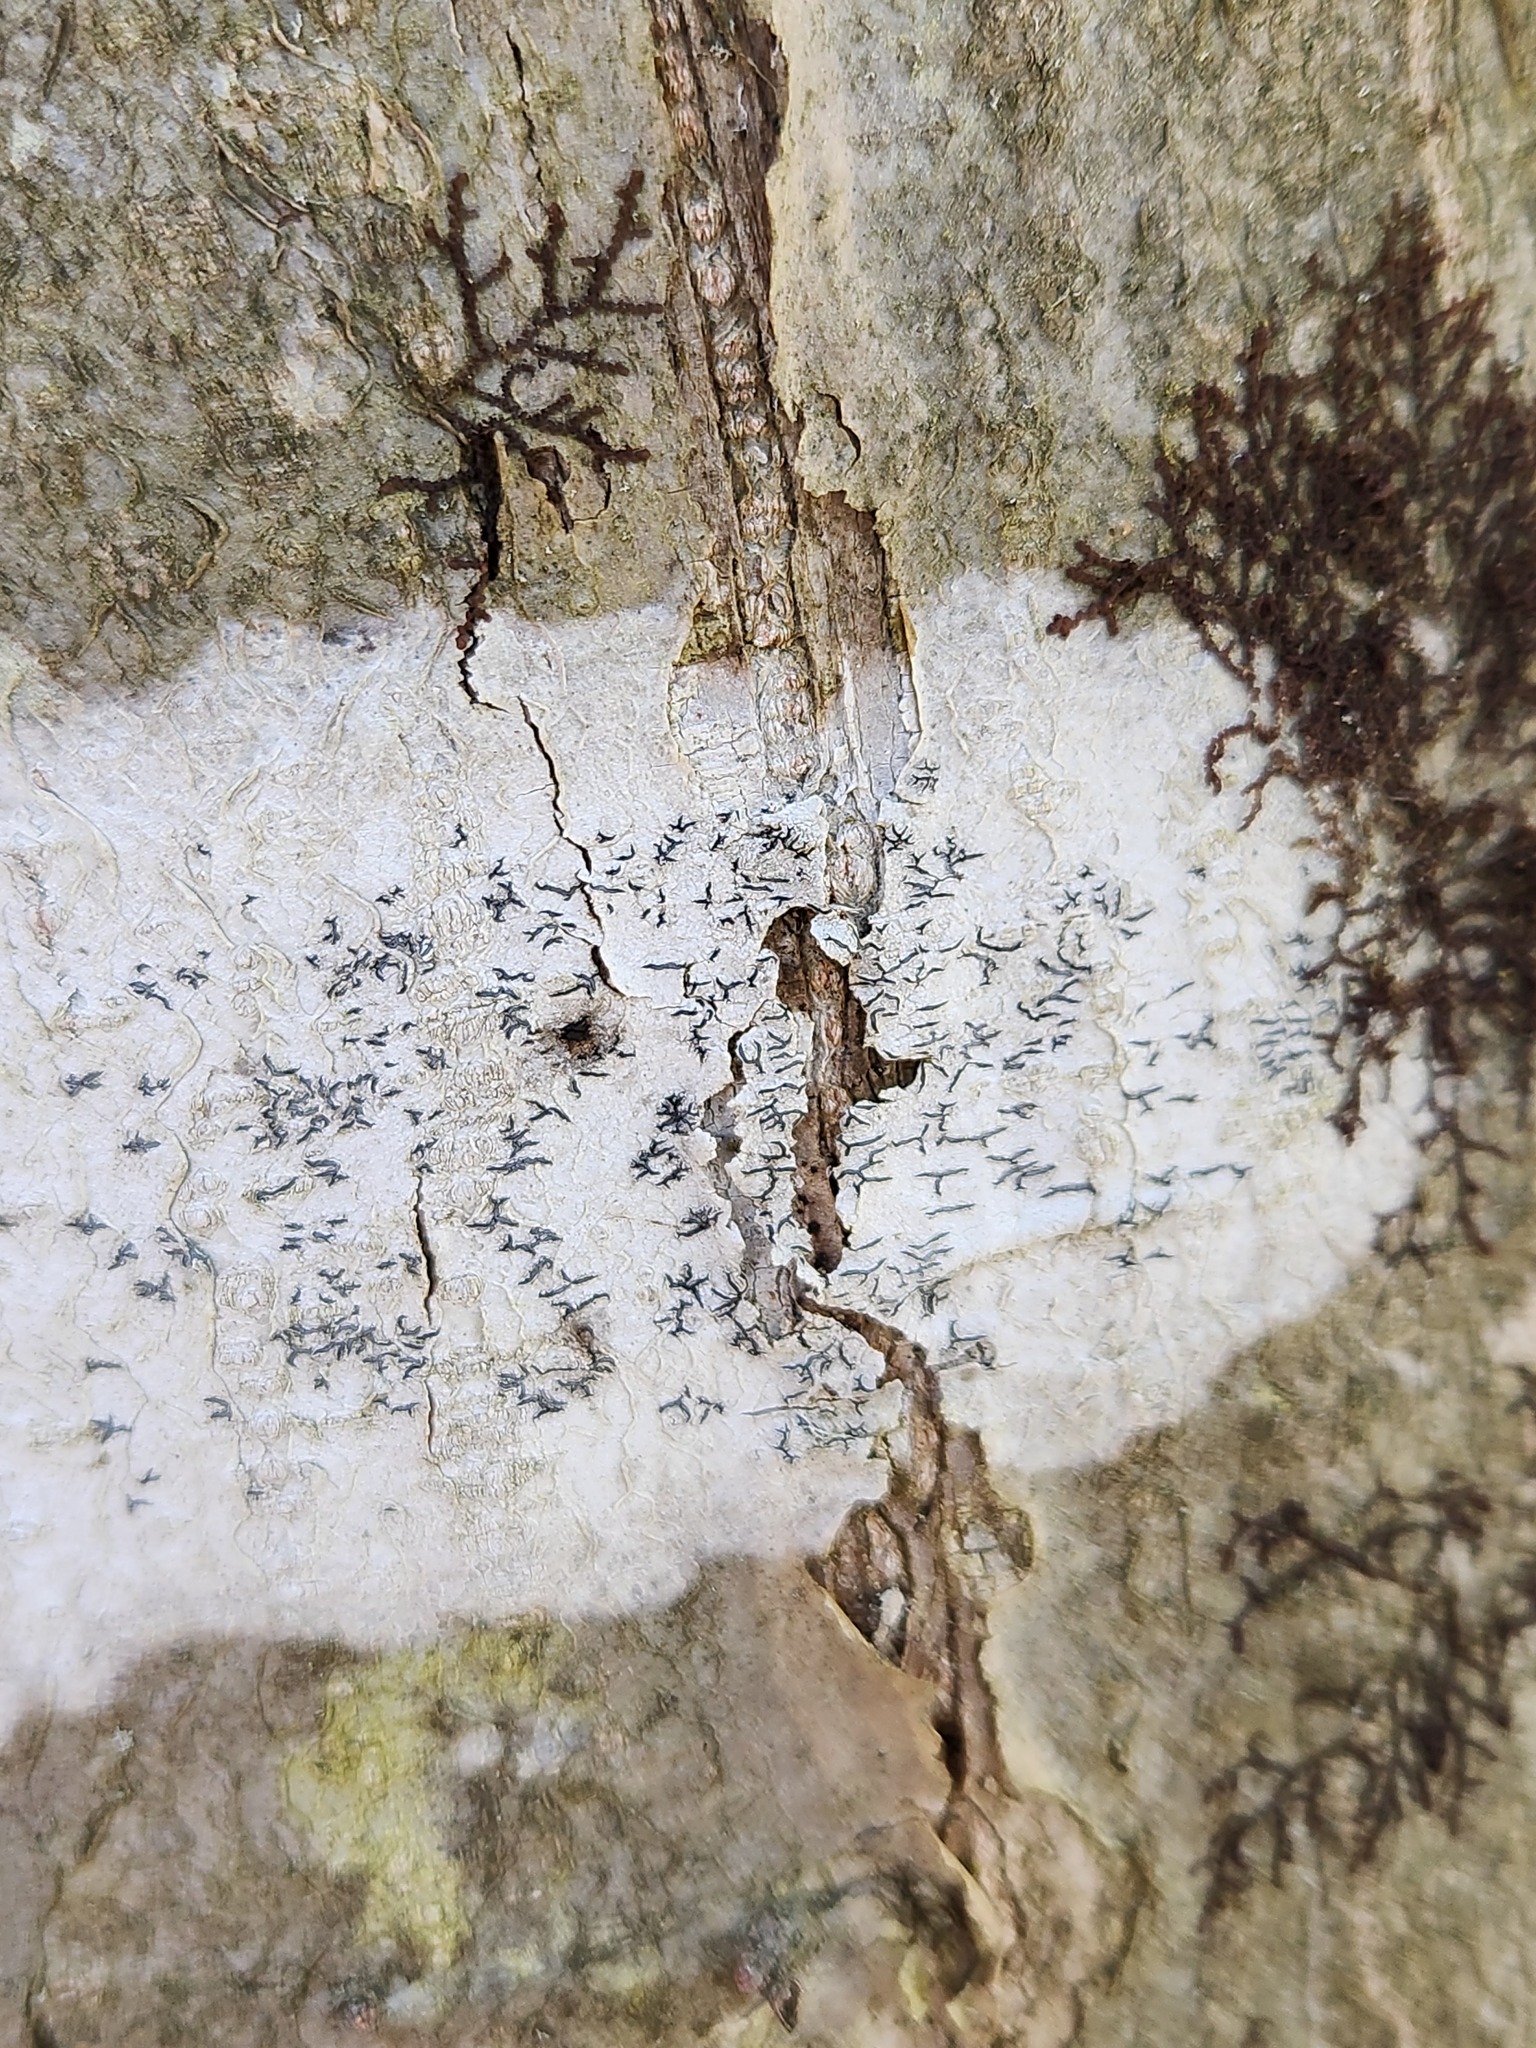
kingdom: Fungi
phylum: Ascomycota
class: Lecanoromycetes
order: Ostropales
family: Graphidaceae
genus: Graphis
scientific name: Graphis scripta
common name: Script lichen
